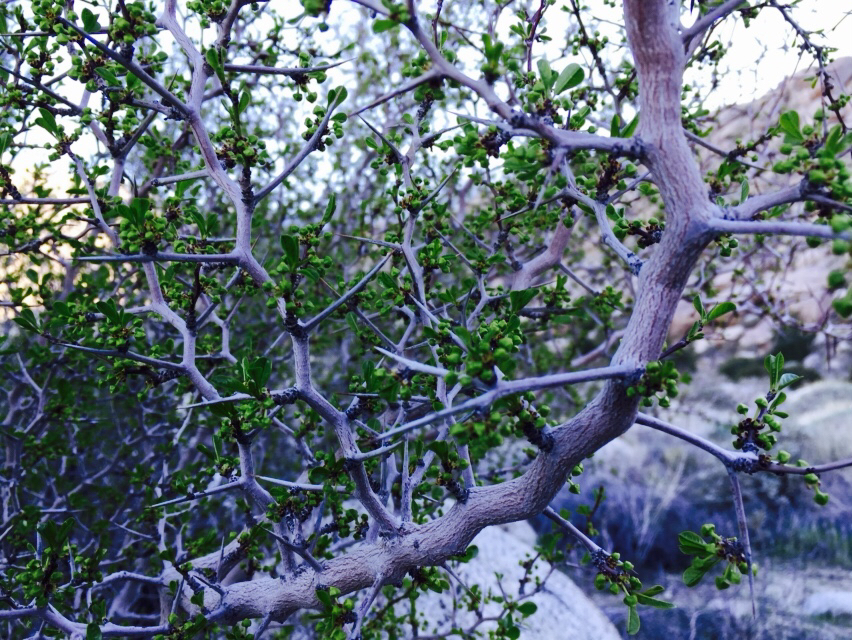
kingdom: Plantae
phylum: Tracheophyta
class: Magnoliopsida
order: Rosales
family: Rhamnaceae
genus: Pseudoziziphus
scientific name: Pseudoziziphus parryi
